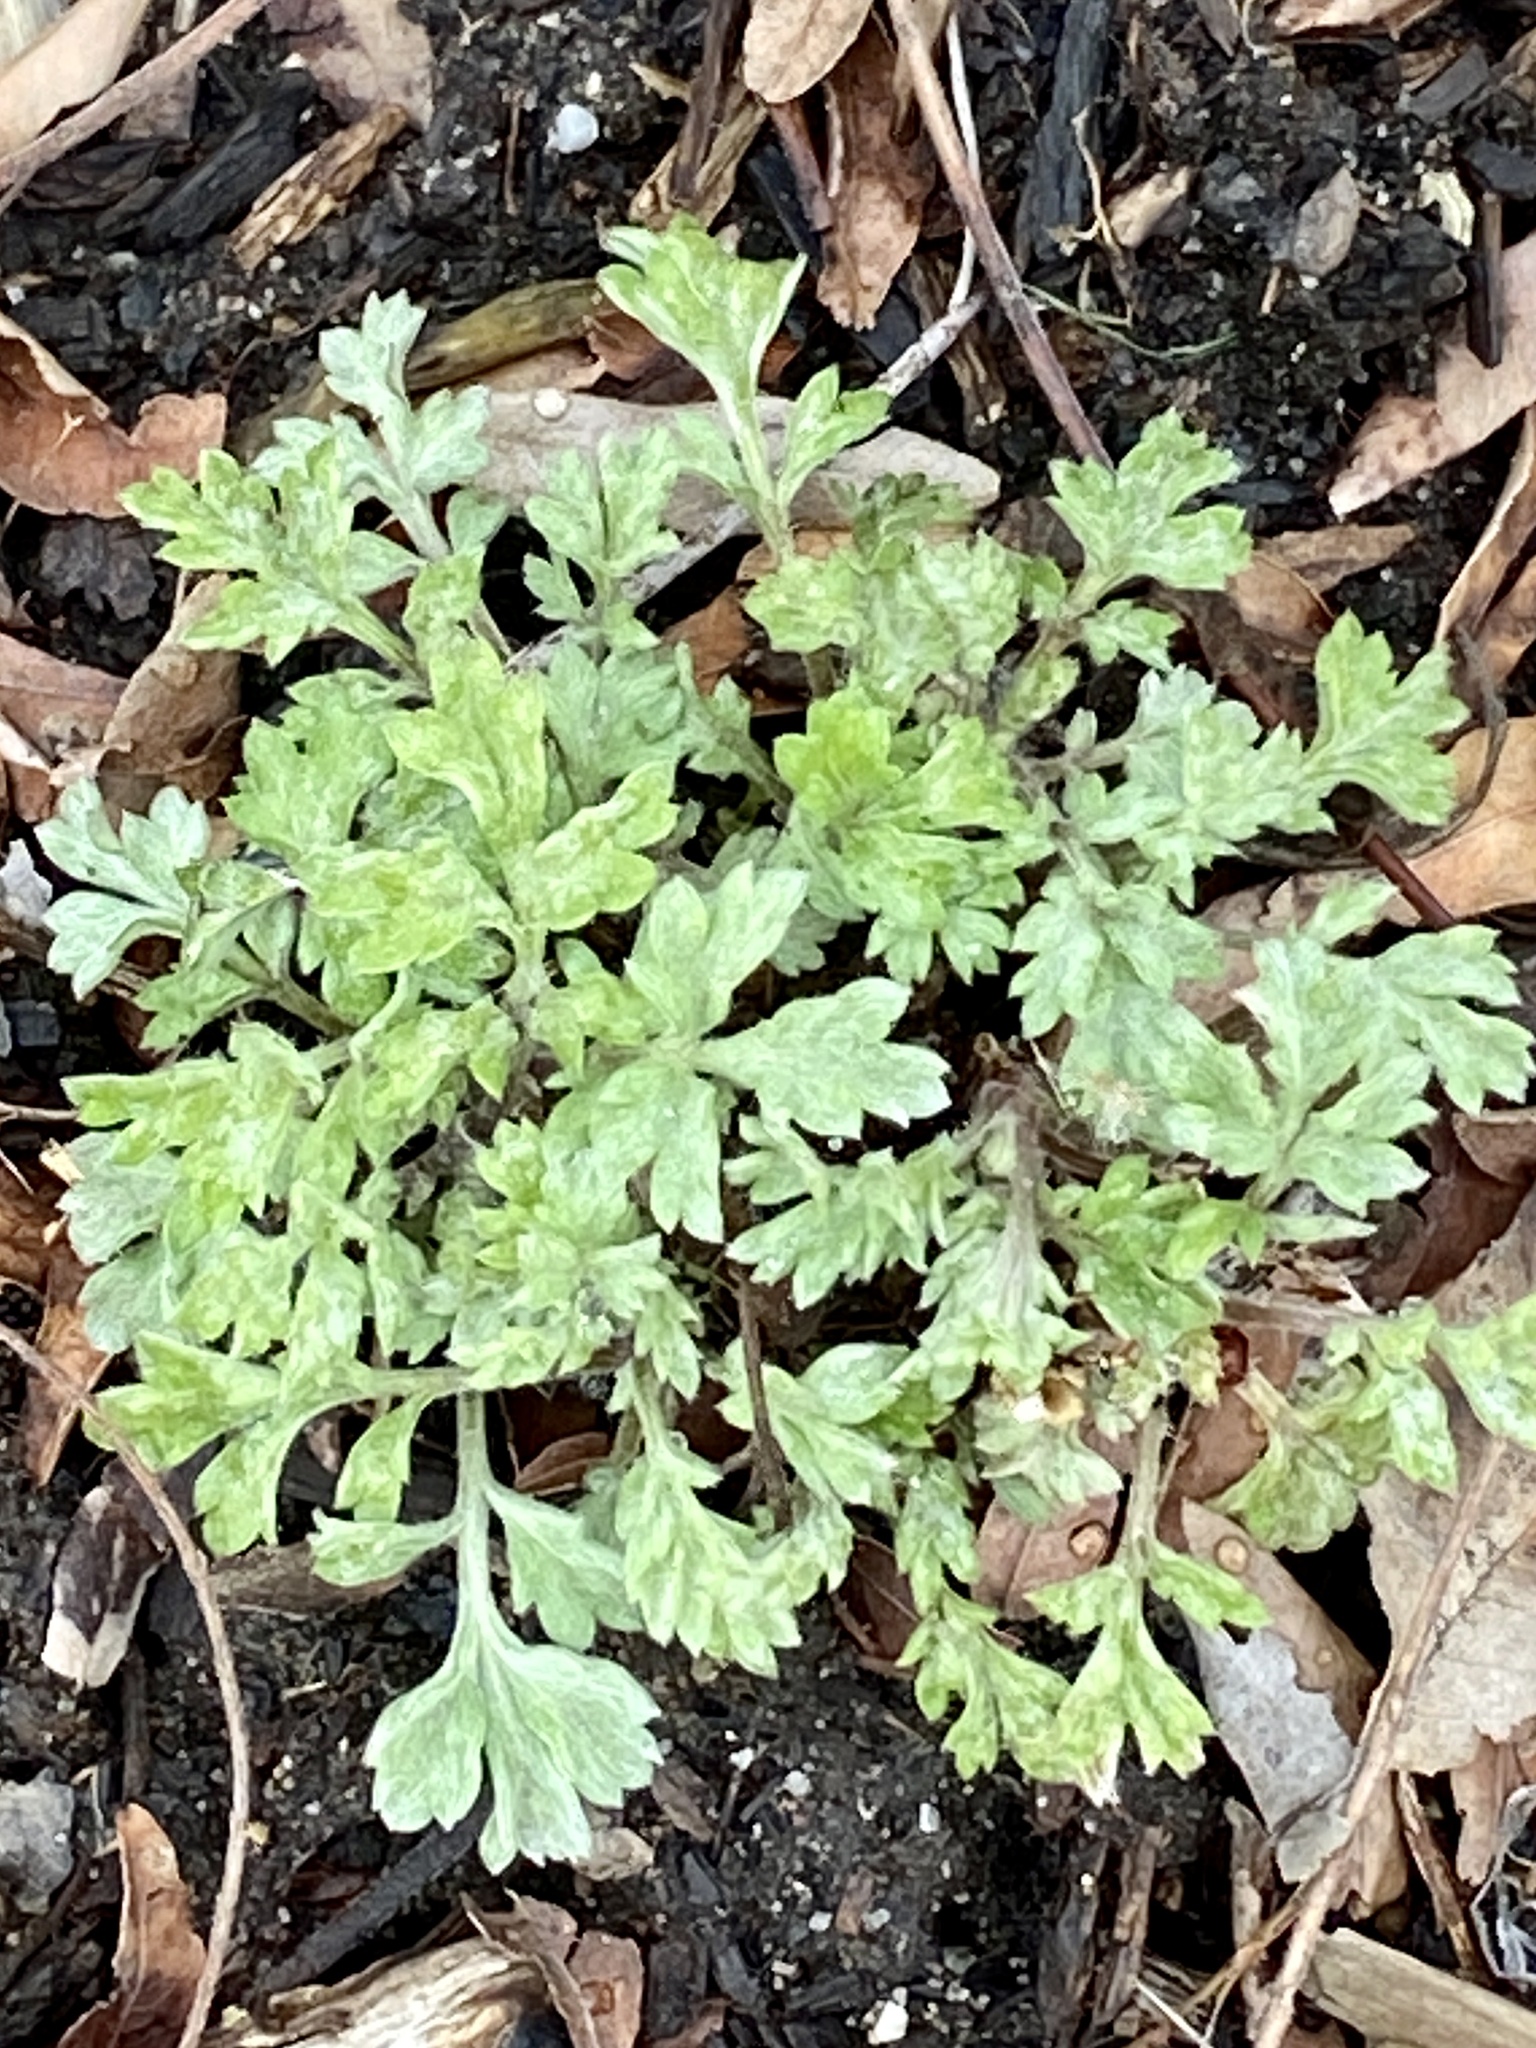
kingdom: Plantae
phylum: Tracheophyta
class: Magnoliopsida
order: Asterales
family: Asteraceae
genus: Artemisia
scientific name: Artemisia vulgaris
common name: Mugwort
